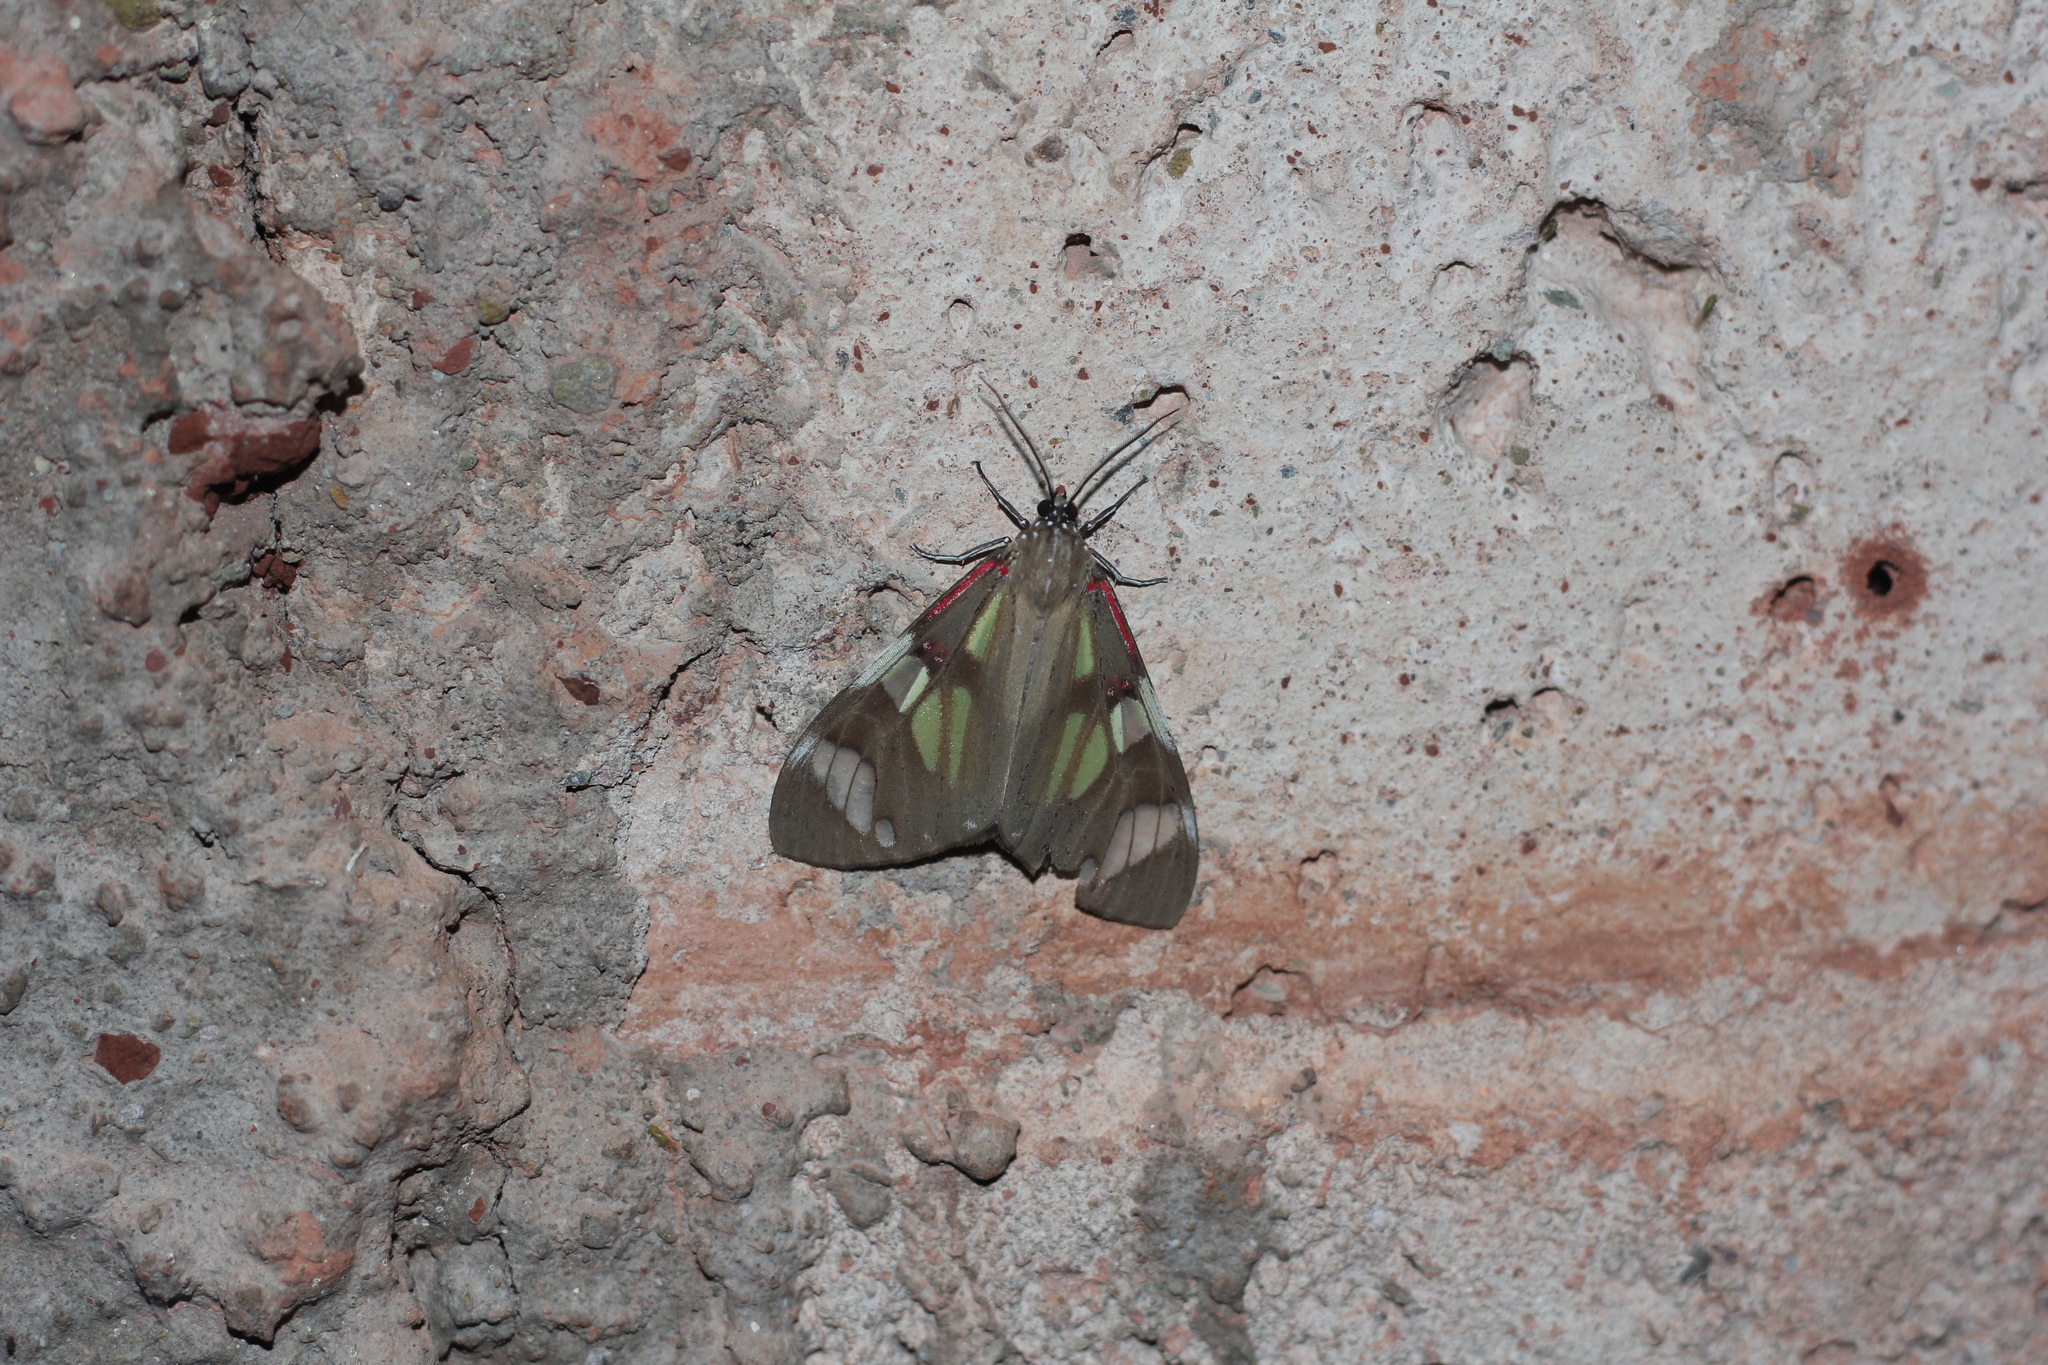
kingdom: Animalia
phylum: Arthropoda
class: Insecta
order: Lepidoptera
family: Erebidae
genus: Phaloe
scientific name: Phaloe cruenta
